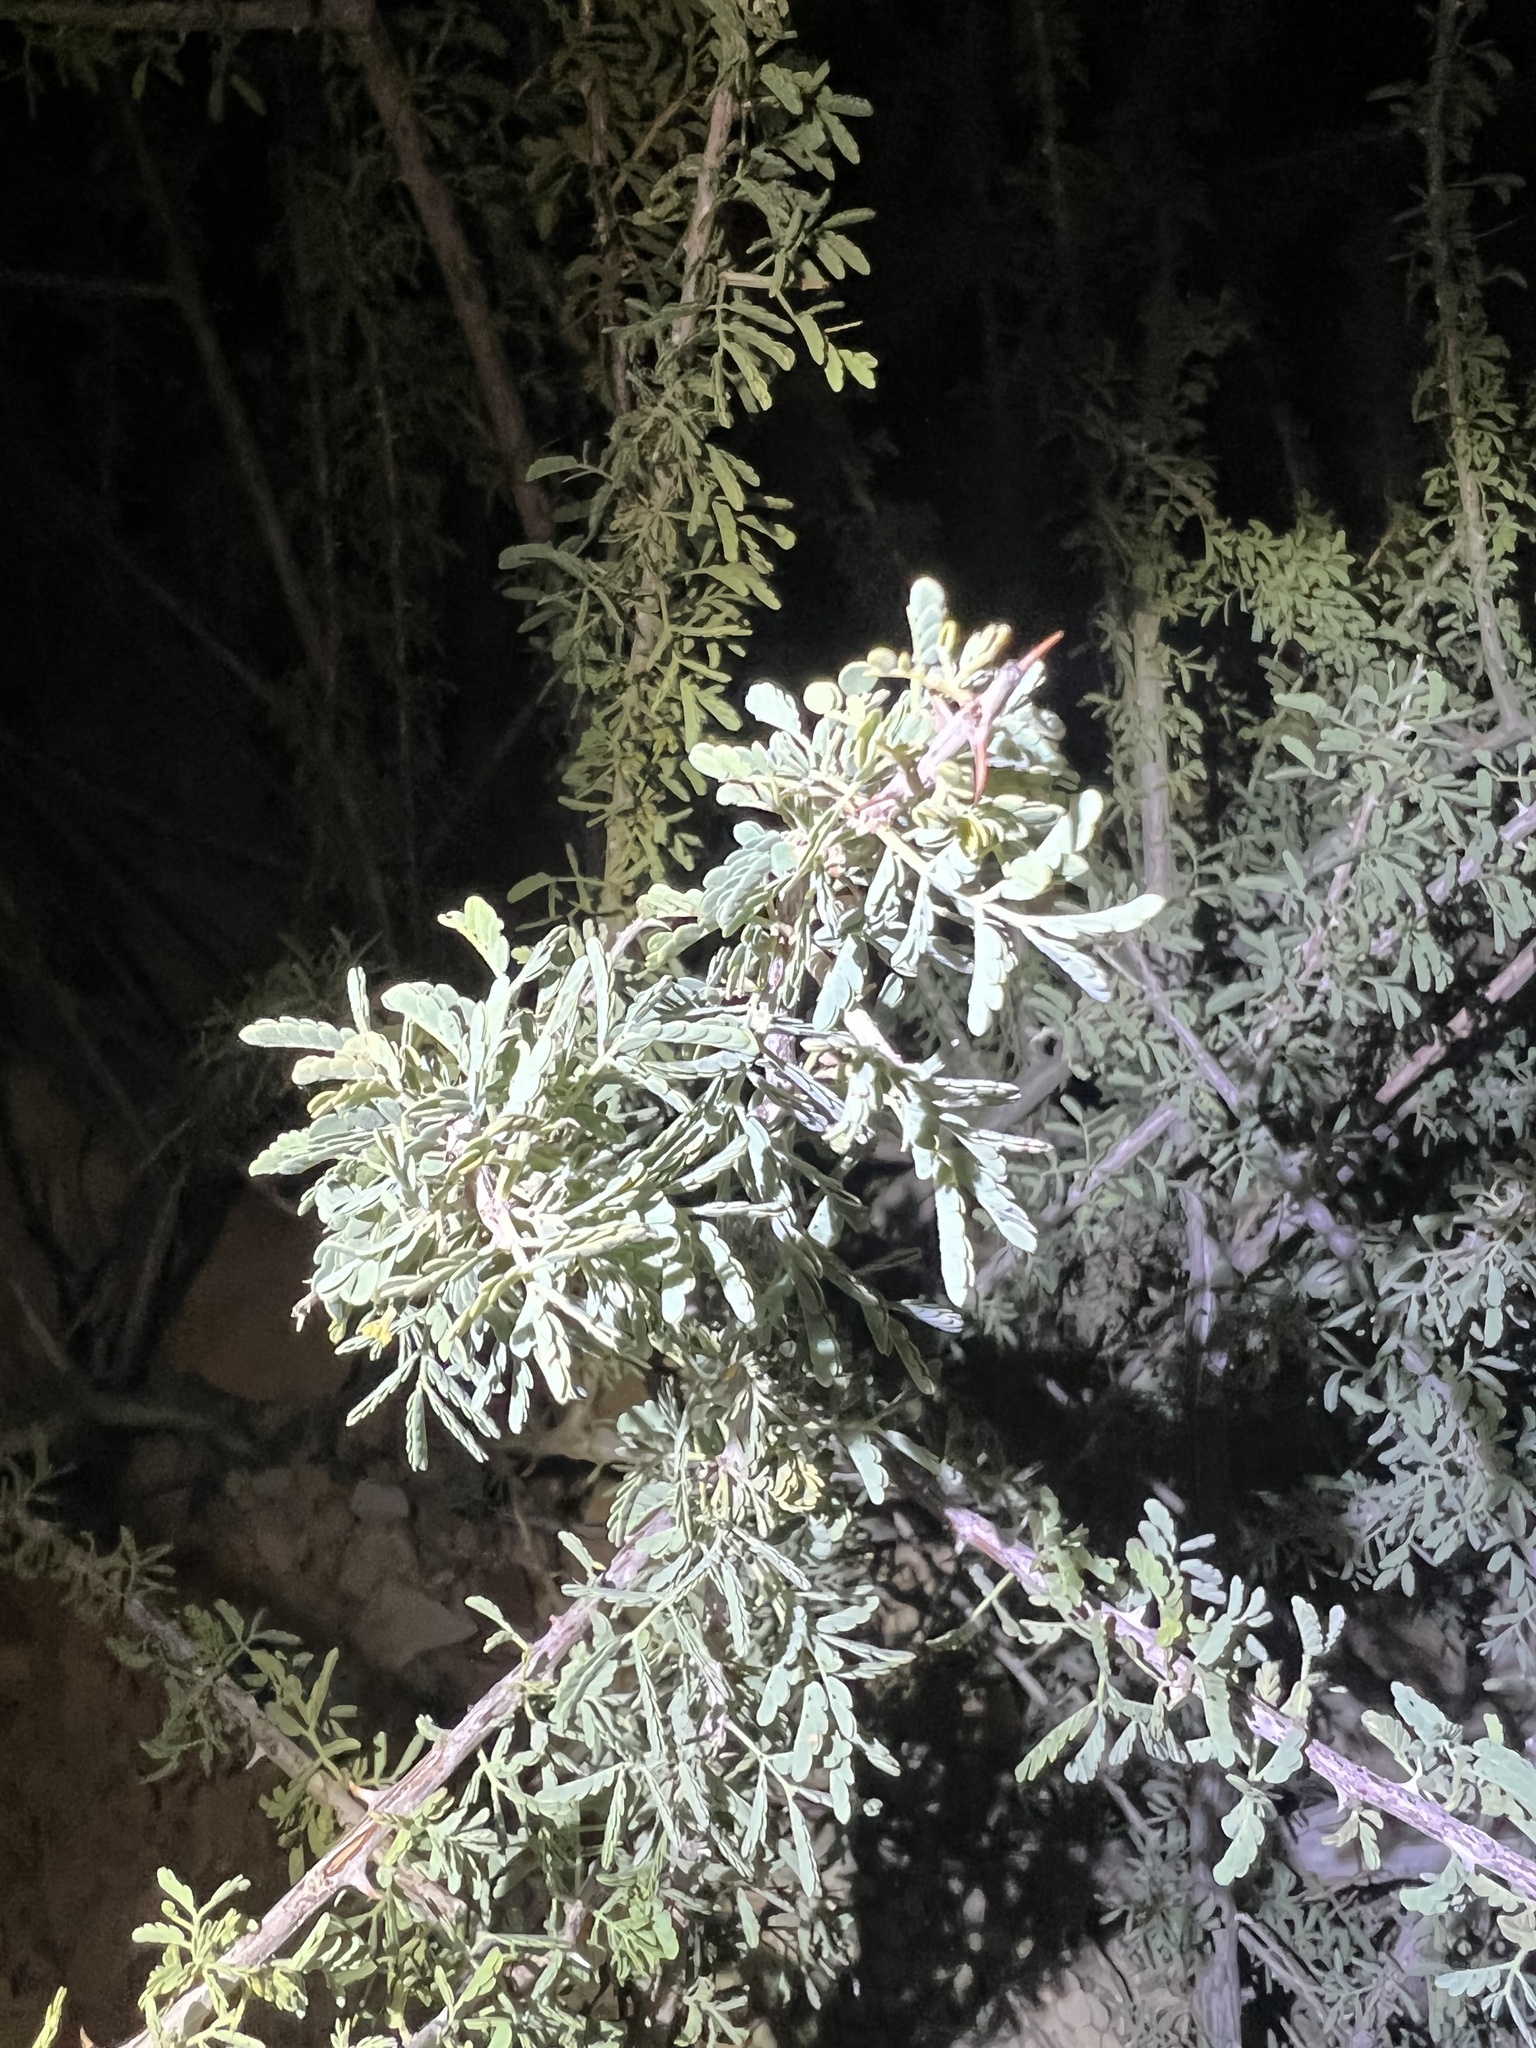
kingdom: Plantae
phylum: Tracheophyta
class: Magnoliopsida
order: Fabales
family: Fabaceae
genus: Senegalia
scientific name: Senegalia greggii
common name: Texas-mimosa
